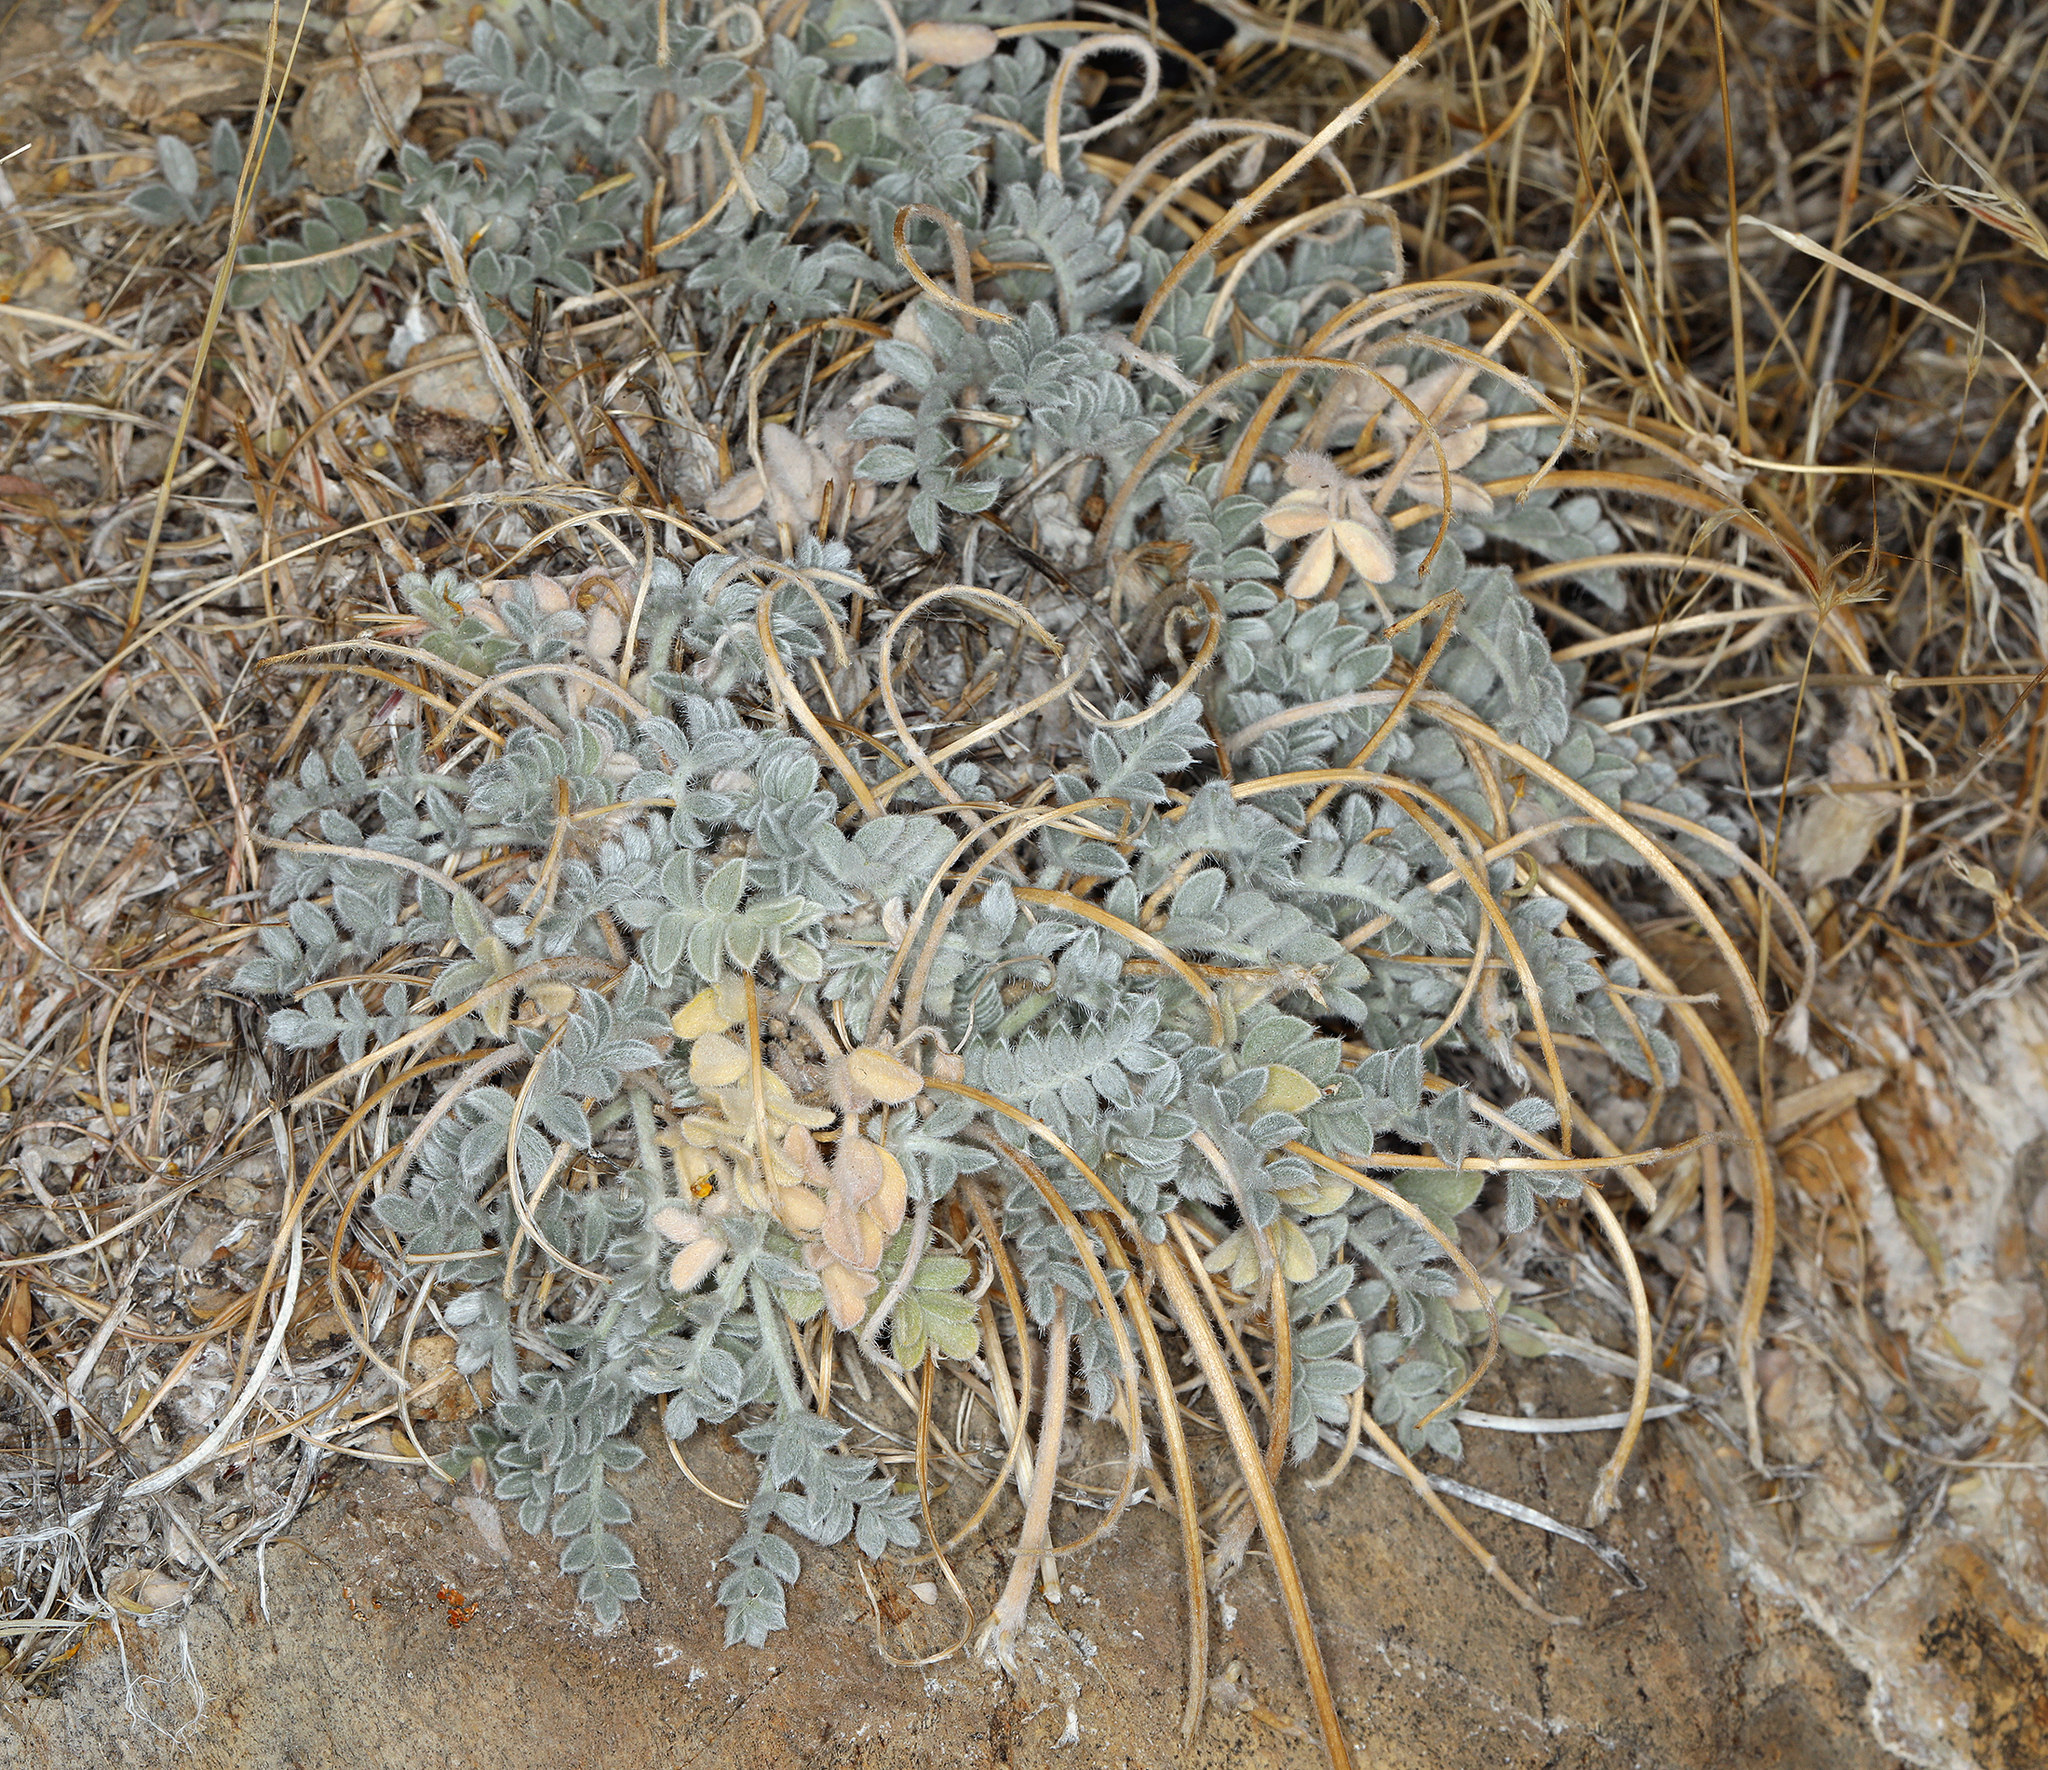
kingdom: Plantae
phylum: Tracheophyta
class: Magnoliopsida
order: Fabales
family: Fabaceae
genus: Astragalus
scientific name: Astragalus coccineus
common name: Scarlet milk-vetch
